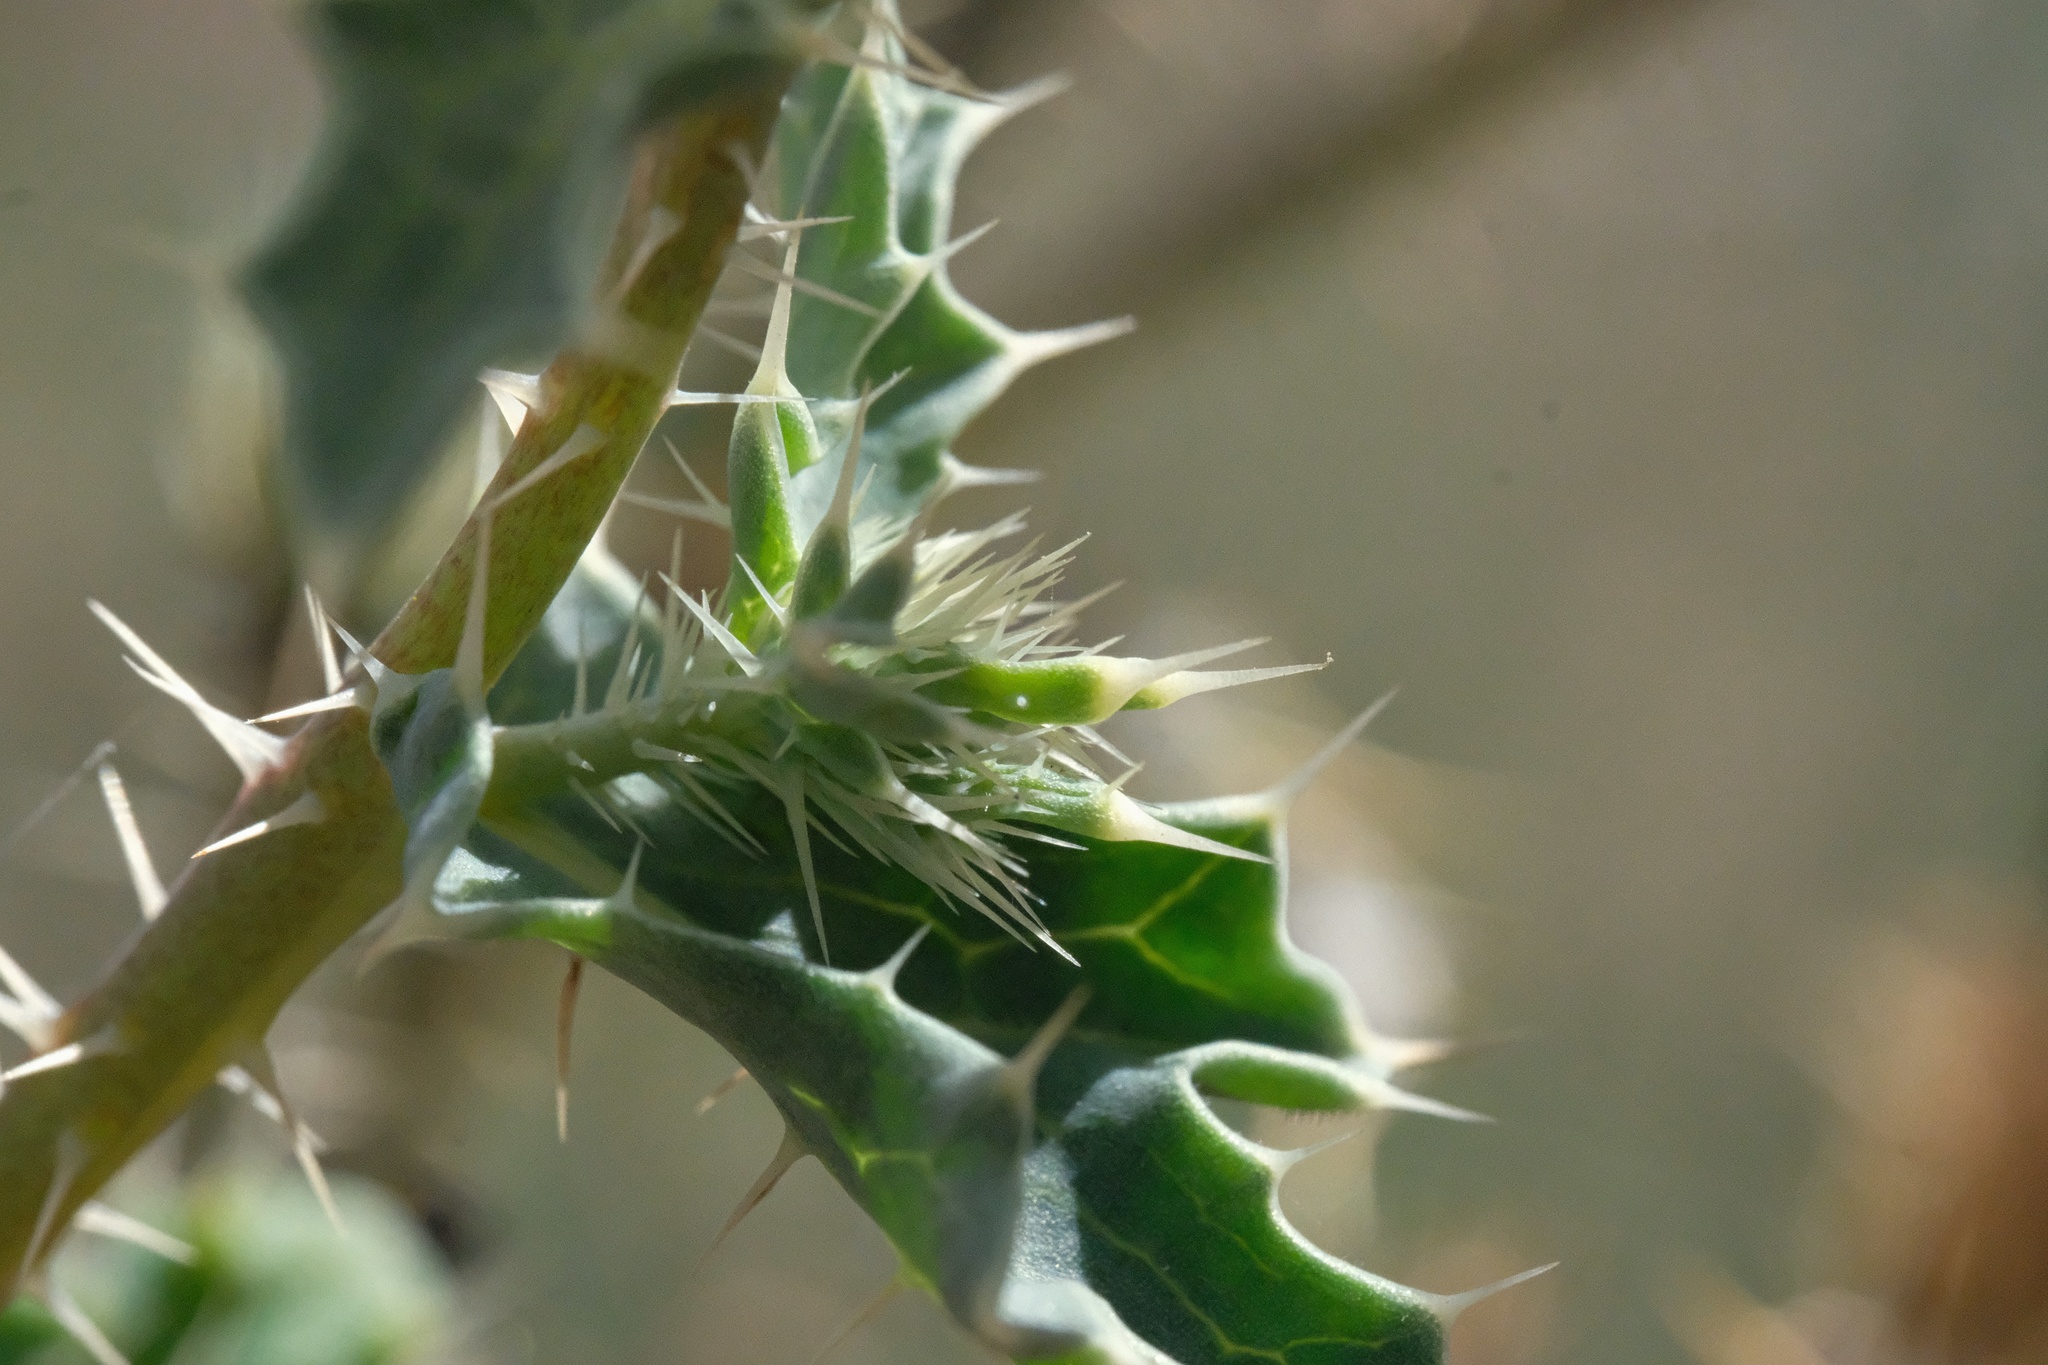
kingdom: Plantae
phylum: Tracheophyta
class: Magnoliopsida
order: Ranunculales
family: Papaveraceae
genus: Argemone
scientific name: Argemone munita
